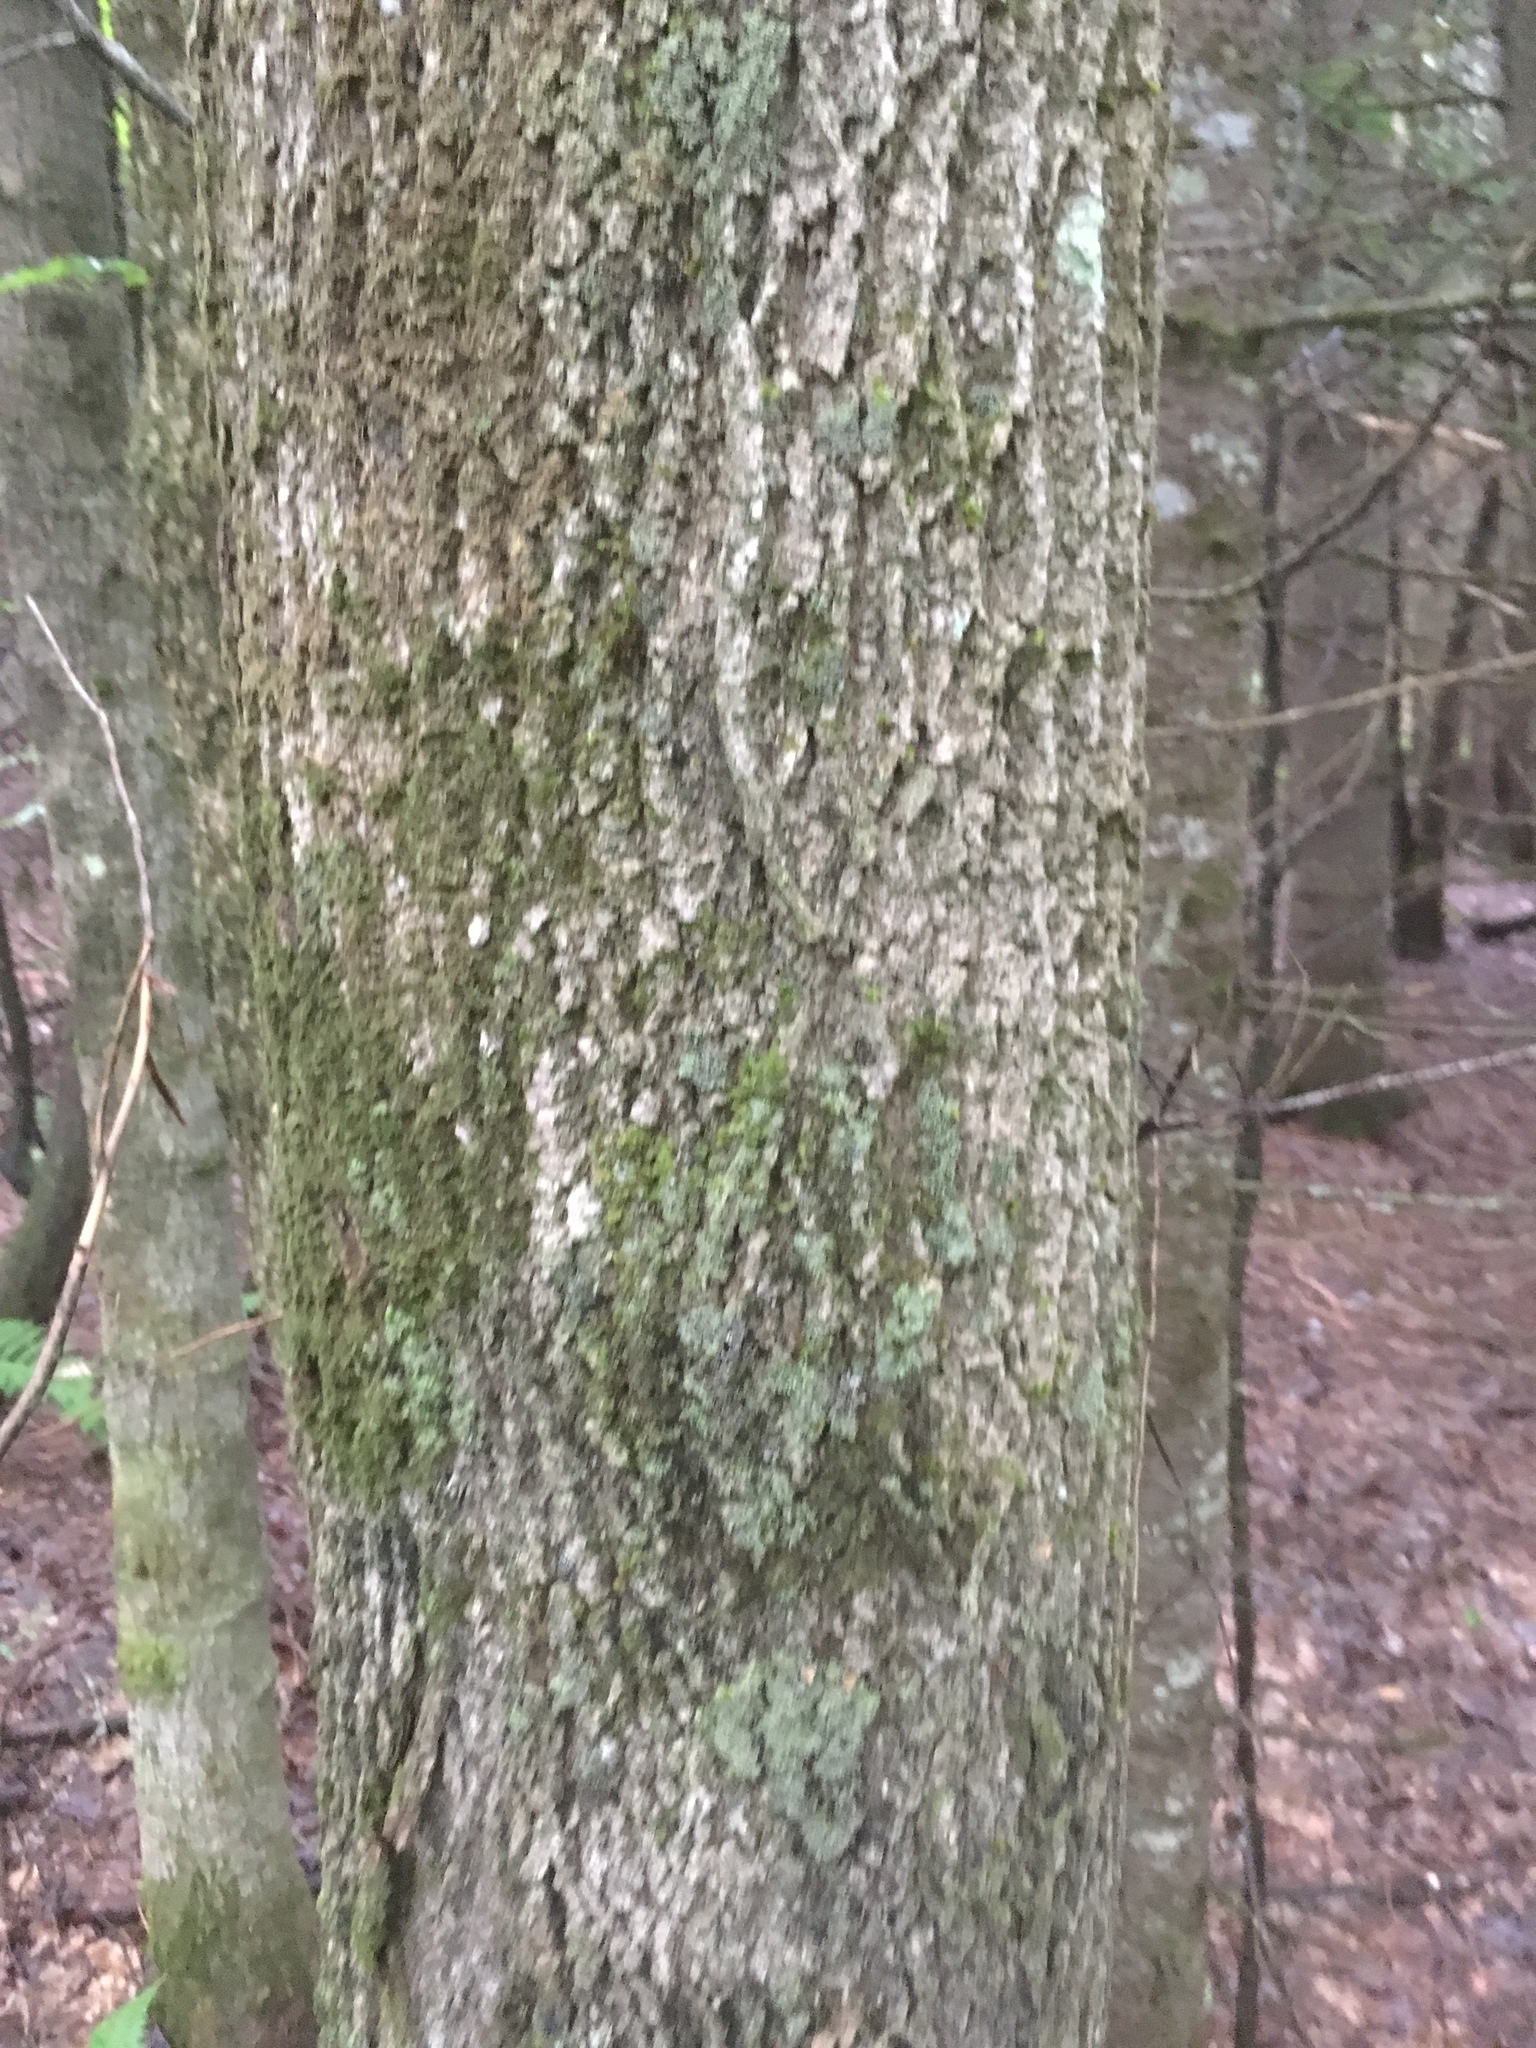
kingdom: Plantae
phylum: Tracheophyta
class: Magnoliopsida
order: Lamiales
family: Oleaceae
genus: Fraxinus
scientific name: Fraxinus americana
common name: White ash
